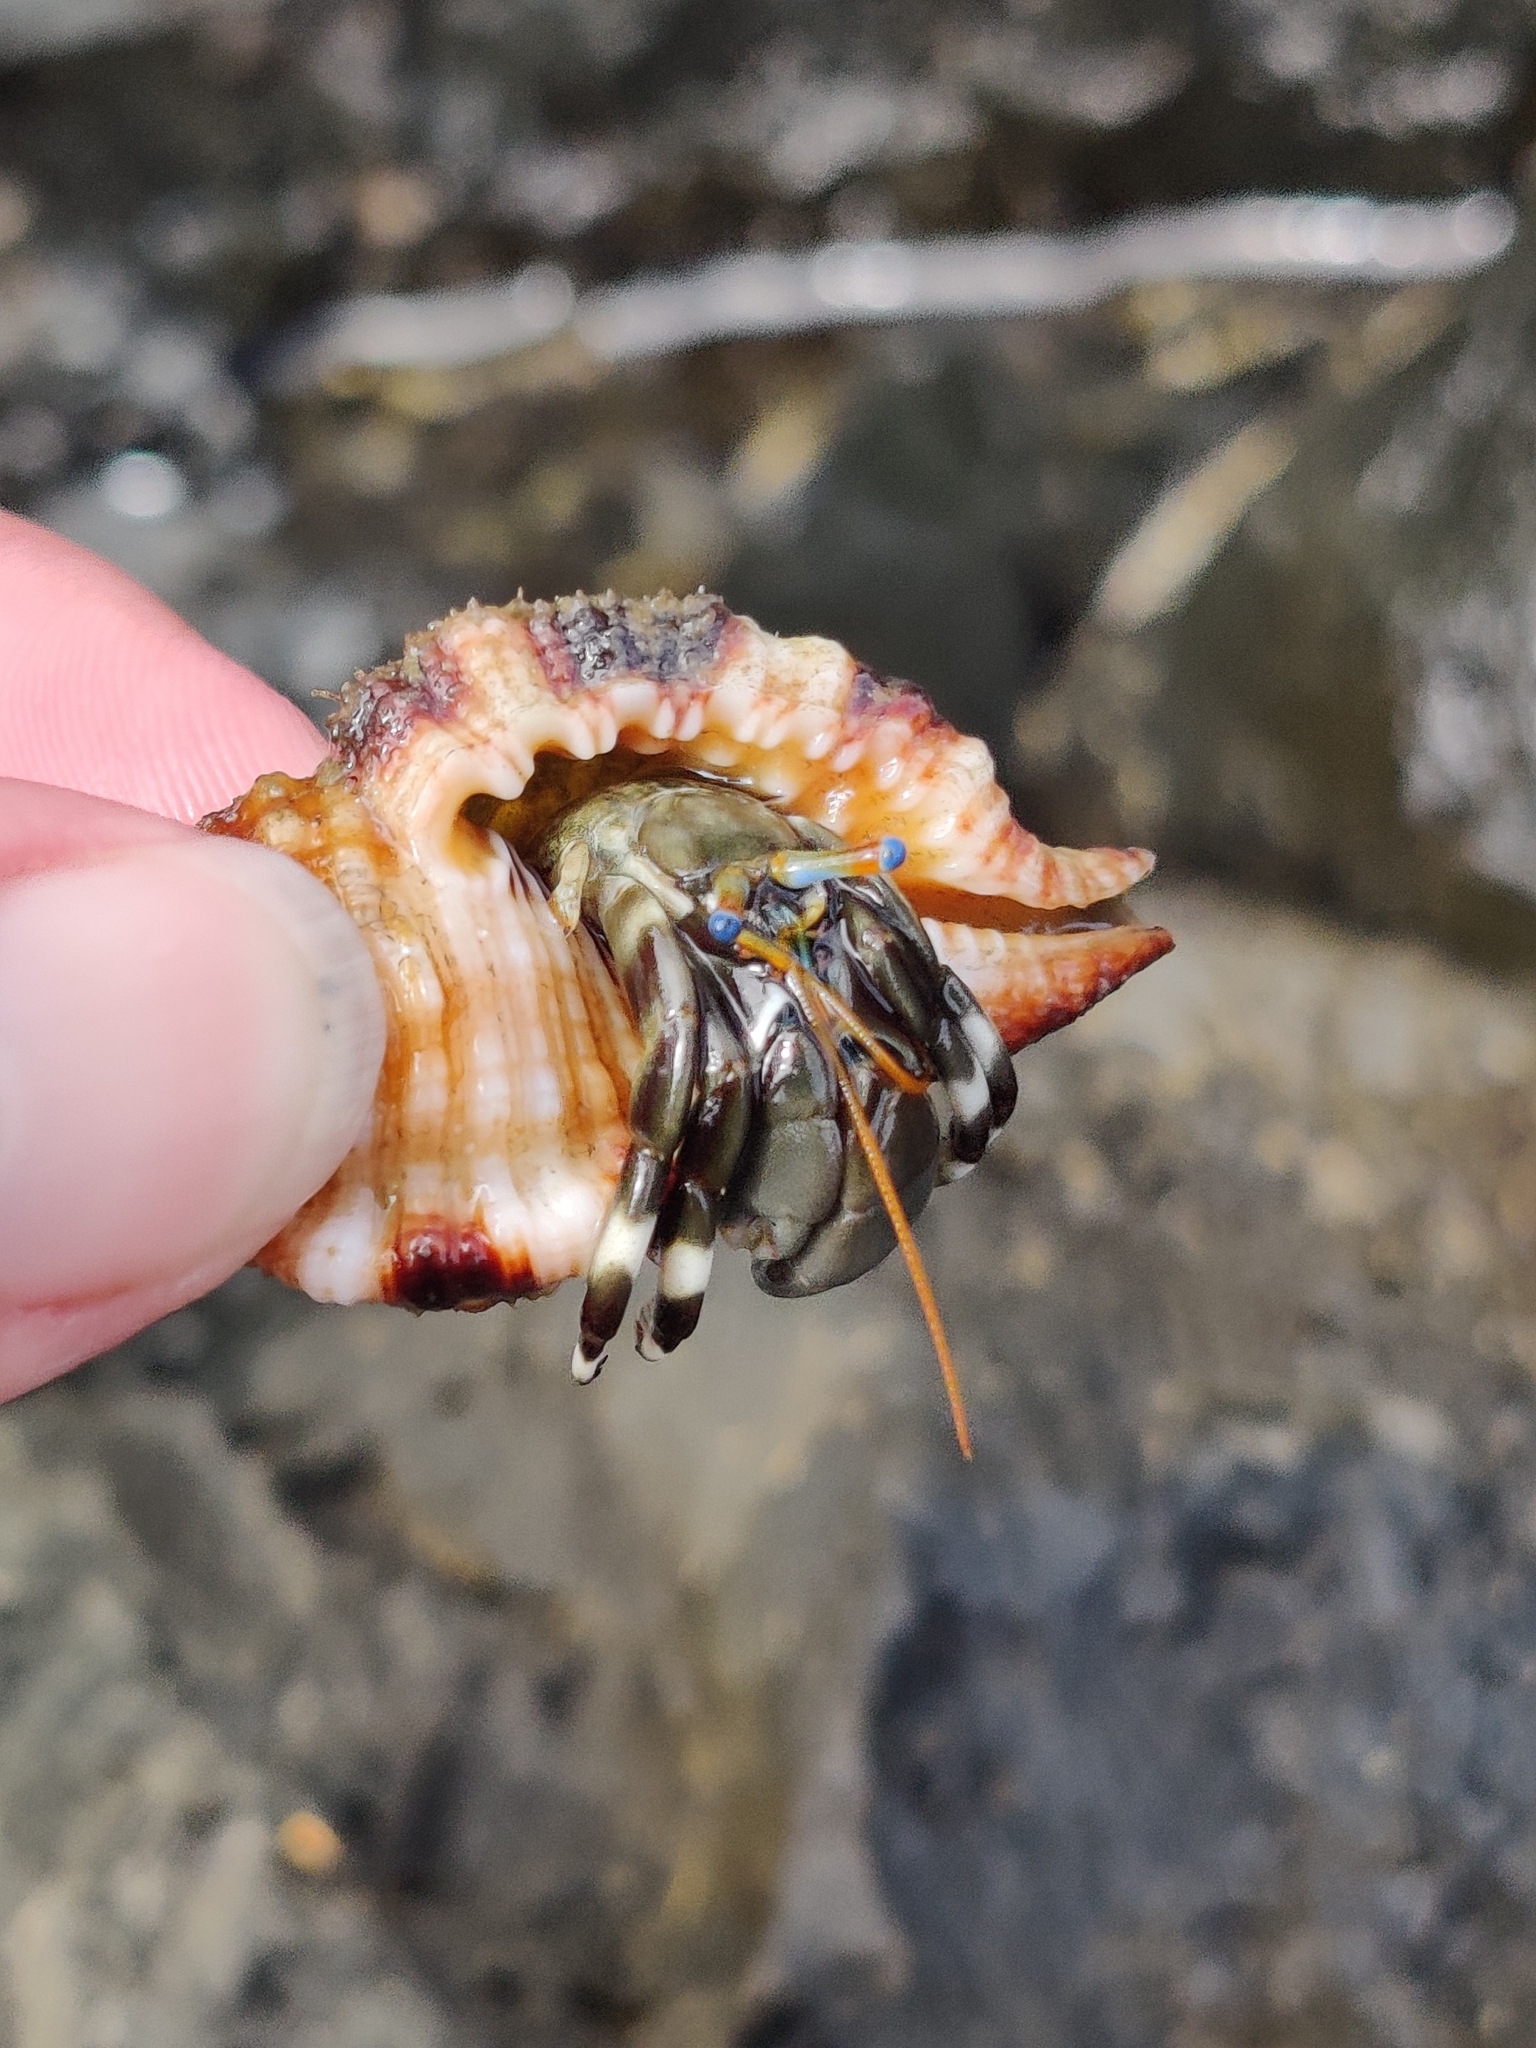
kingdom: Animalia
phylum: Arthropoda
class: Malacostraca
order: Decapoda
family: Diogenidae
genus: Calcinus
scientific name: Calcinus laevimanus
